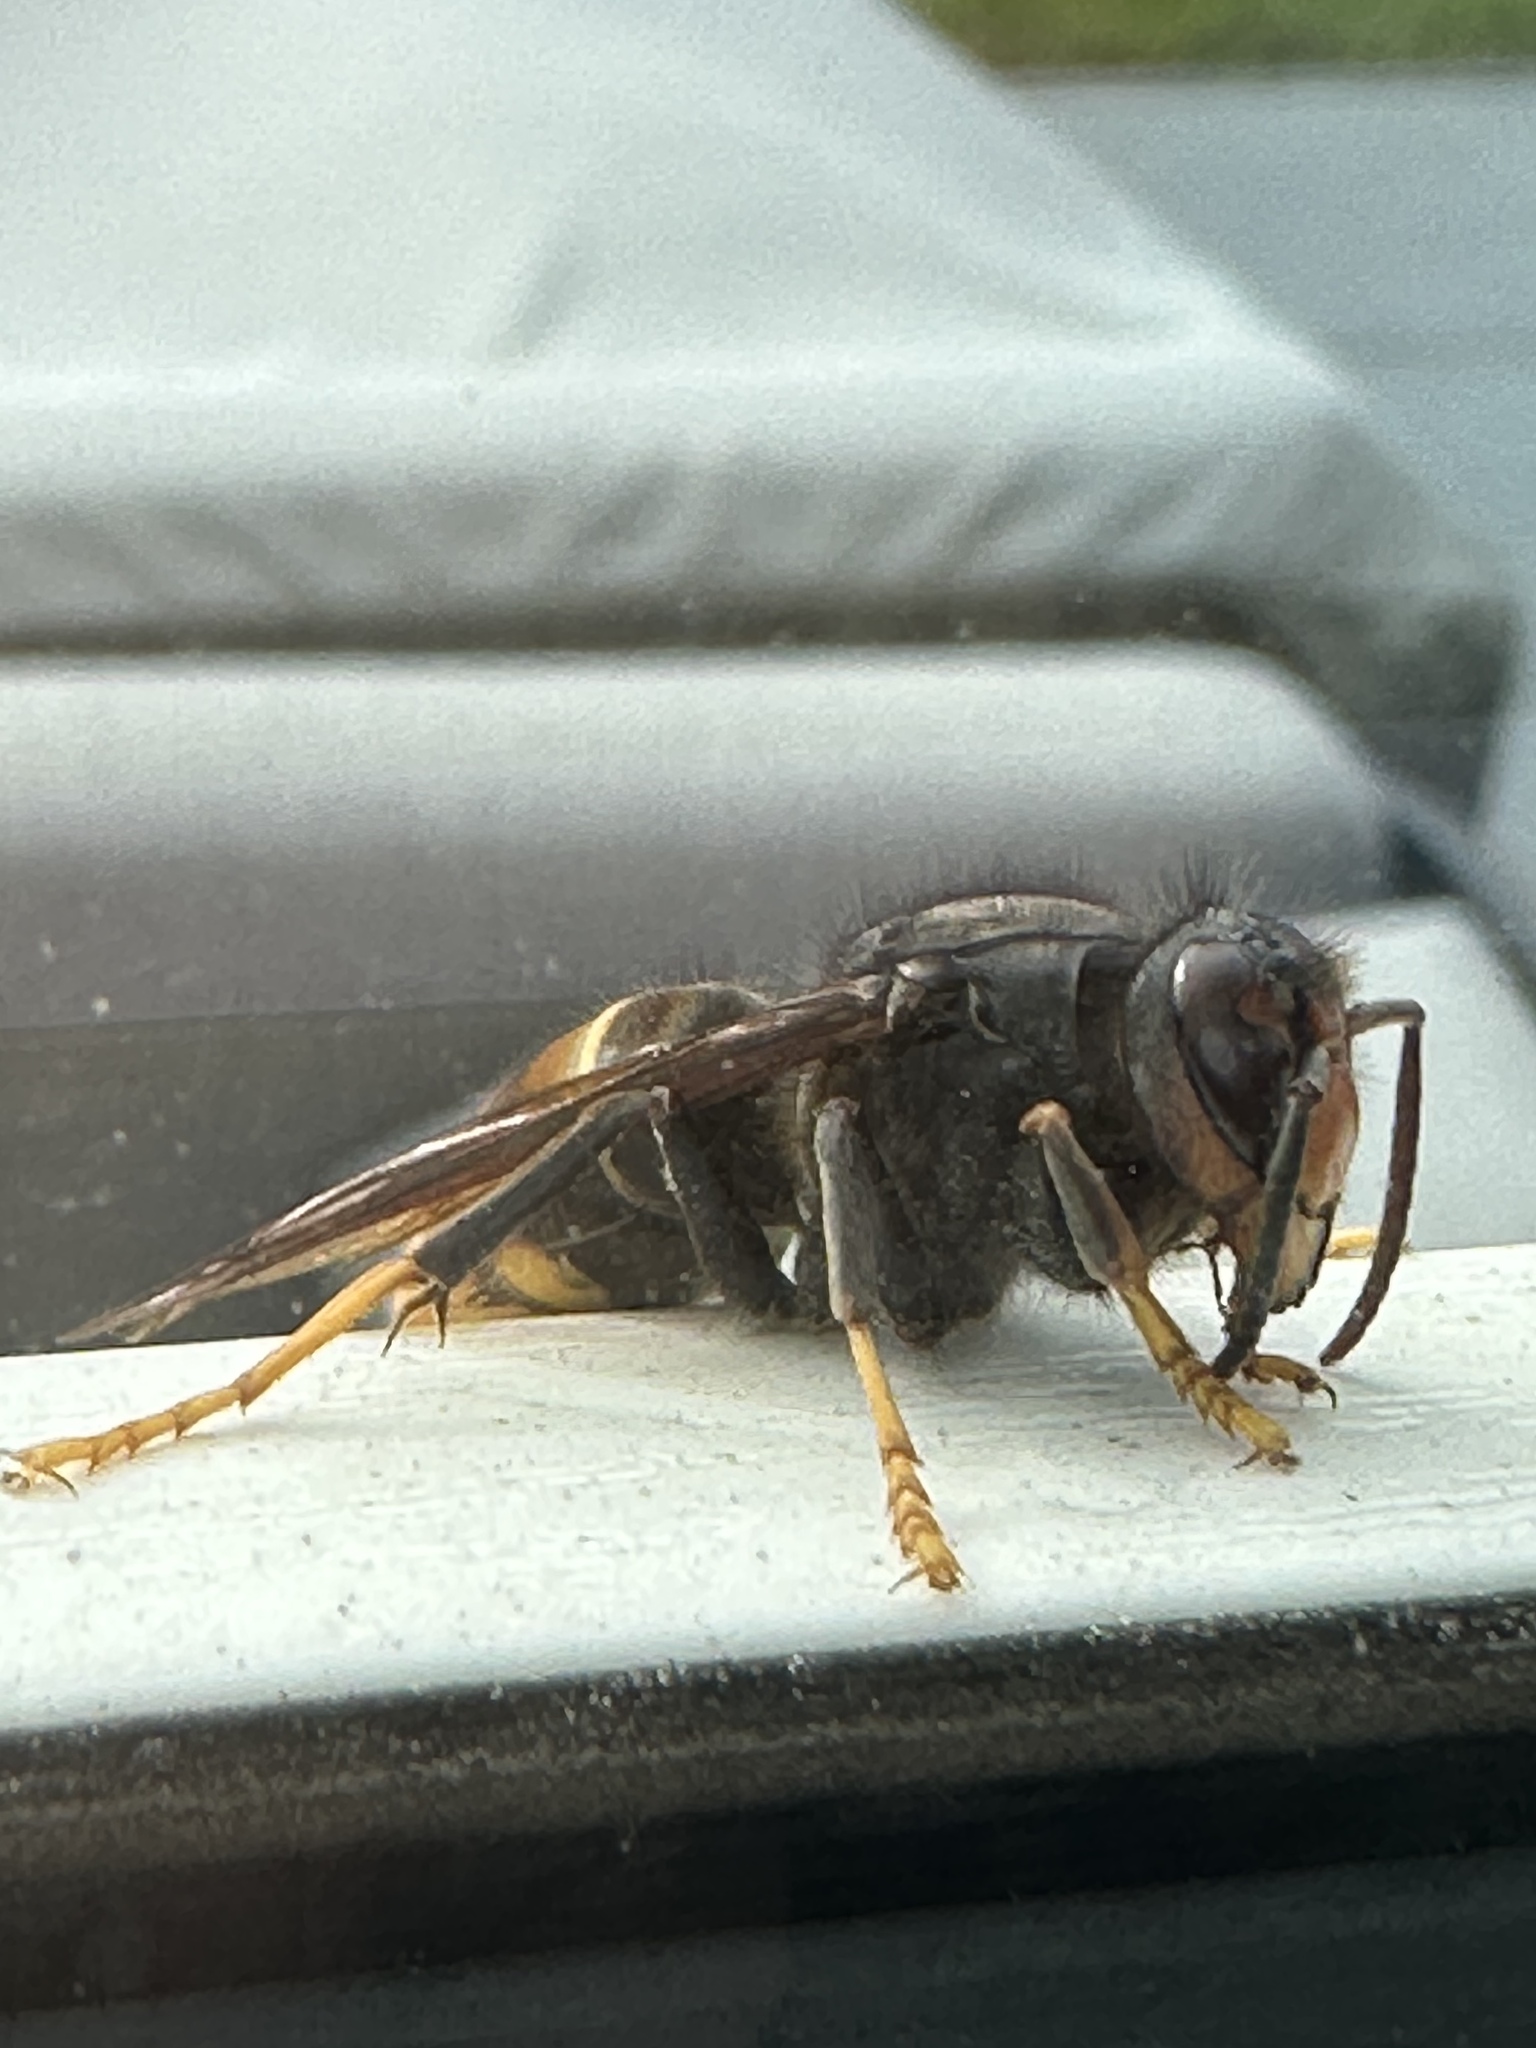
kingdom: Animalia
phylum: Arthropoda
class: Insecta
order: Hymenoptera
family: Vespidae
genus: Vespa
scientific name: Vespa velutina
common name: Asian hornet
